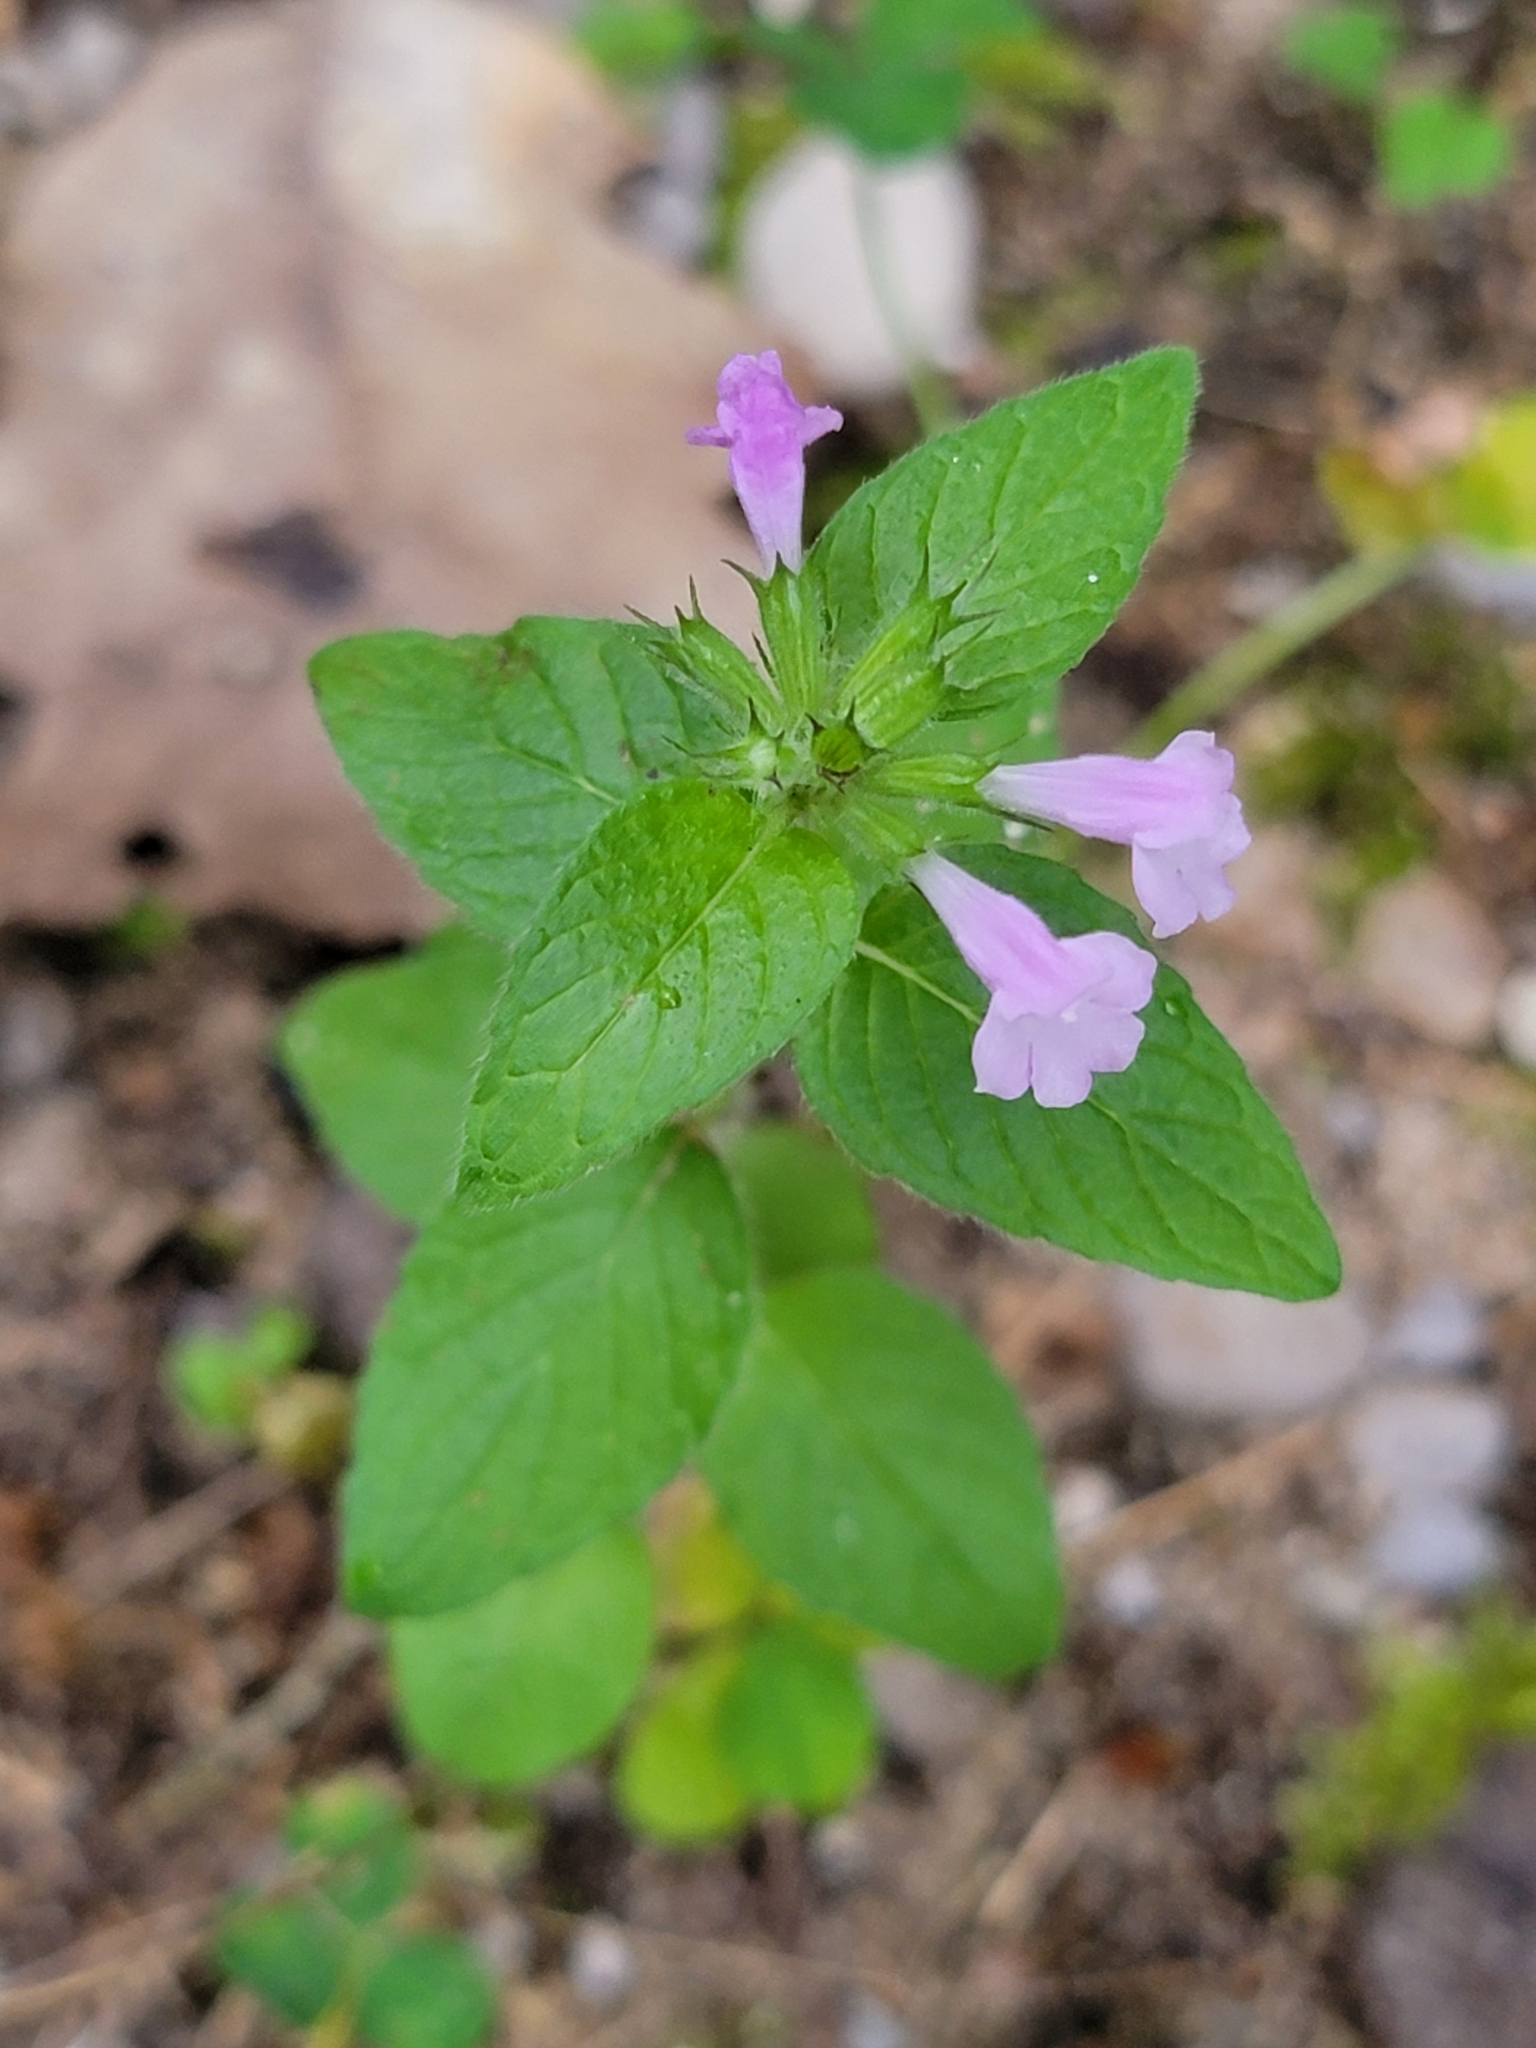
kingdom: Plantae
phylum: Tracheophyta
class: Magnoliopsida
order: Lamiales
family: Lamiaceae
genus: Clinopodium
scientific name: Clinopodium vulgare
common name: Wild basil
